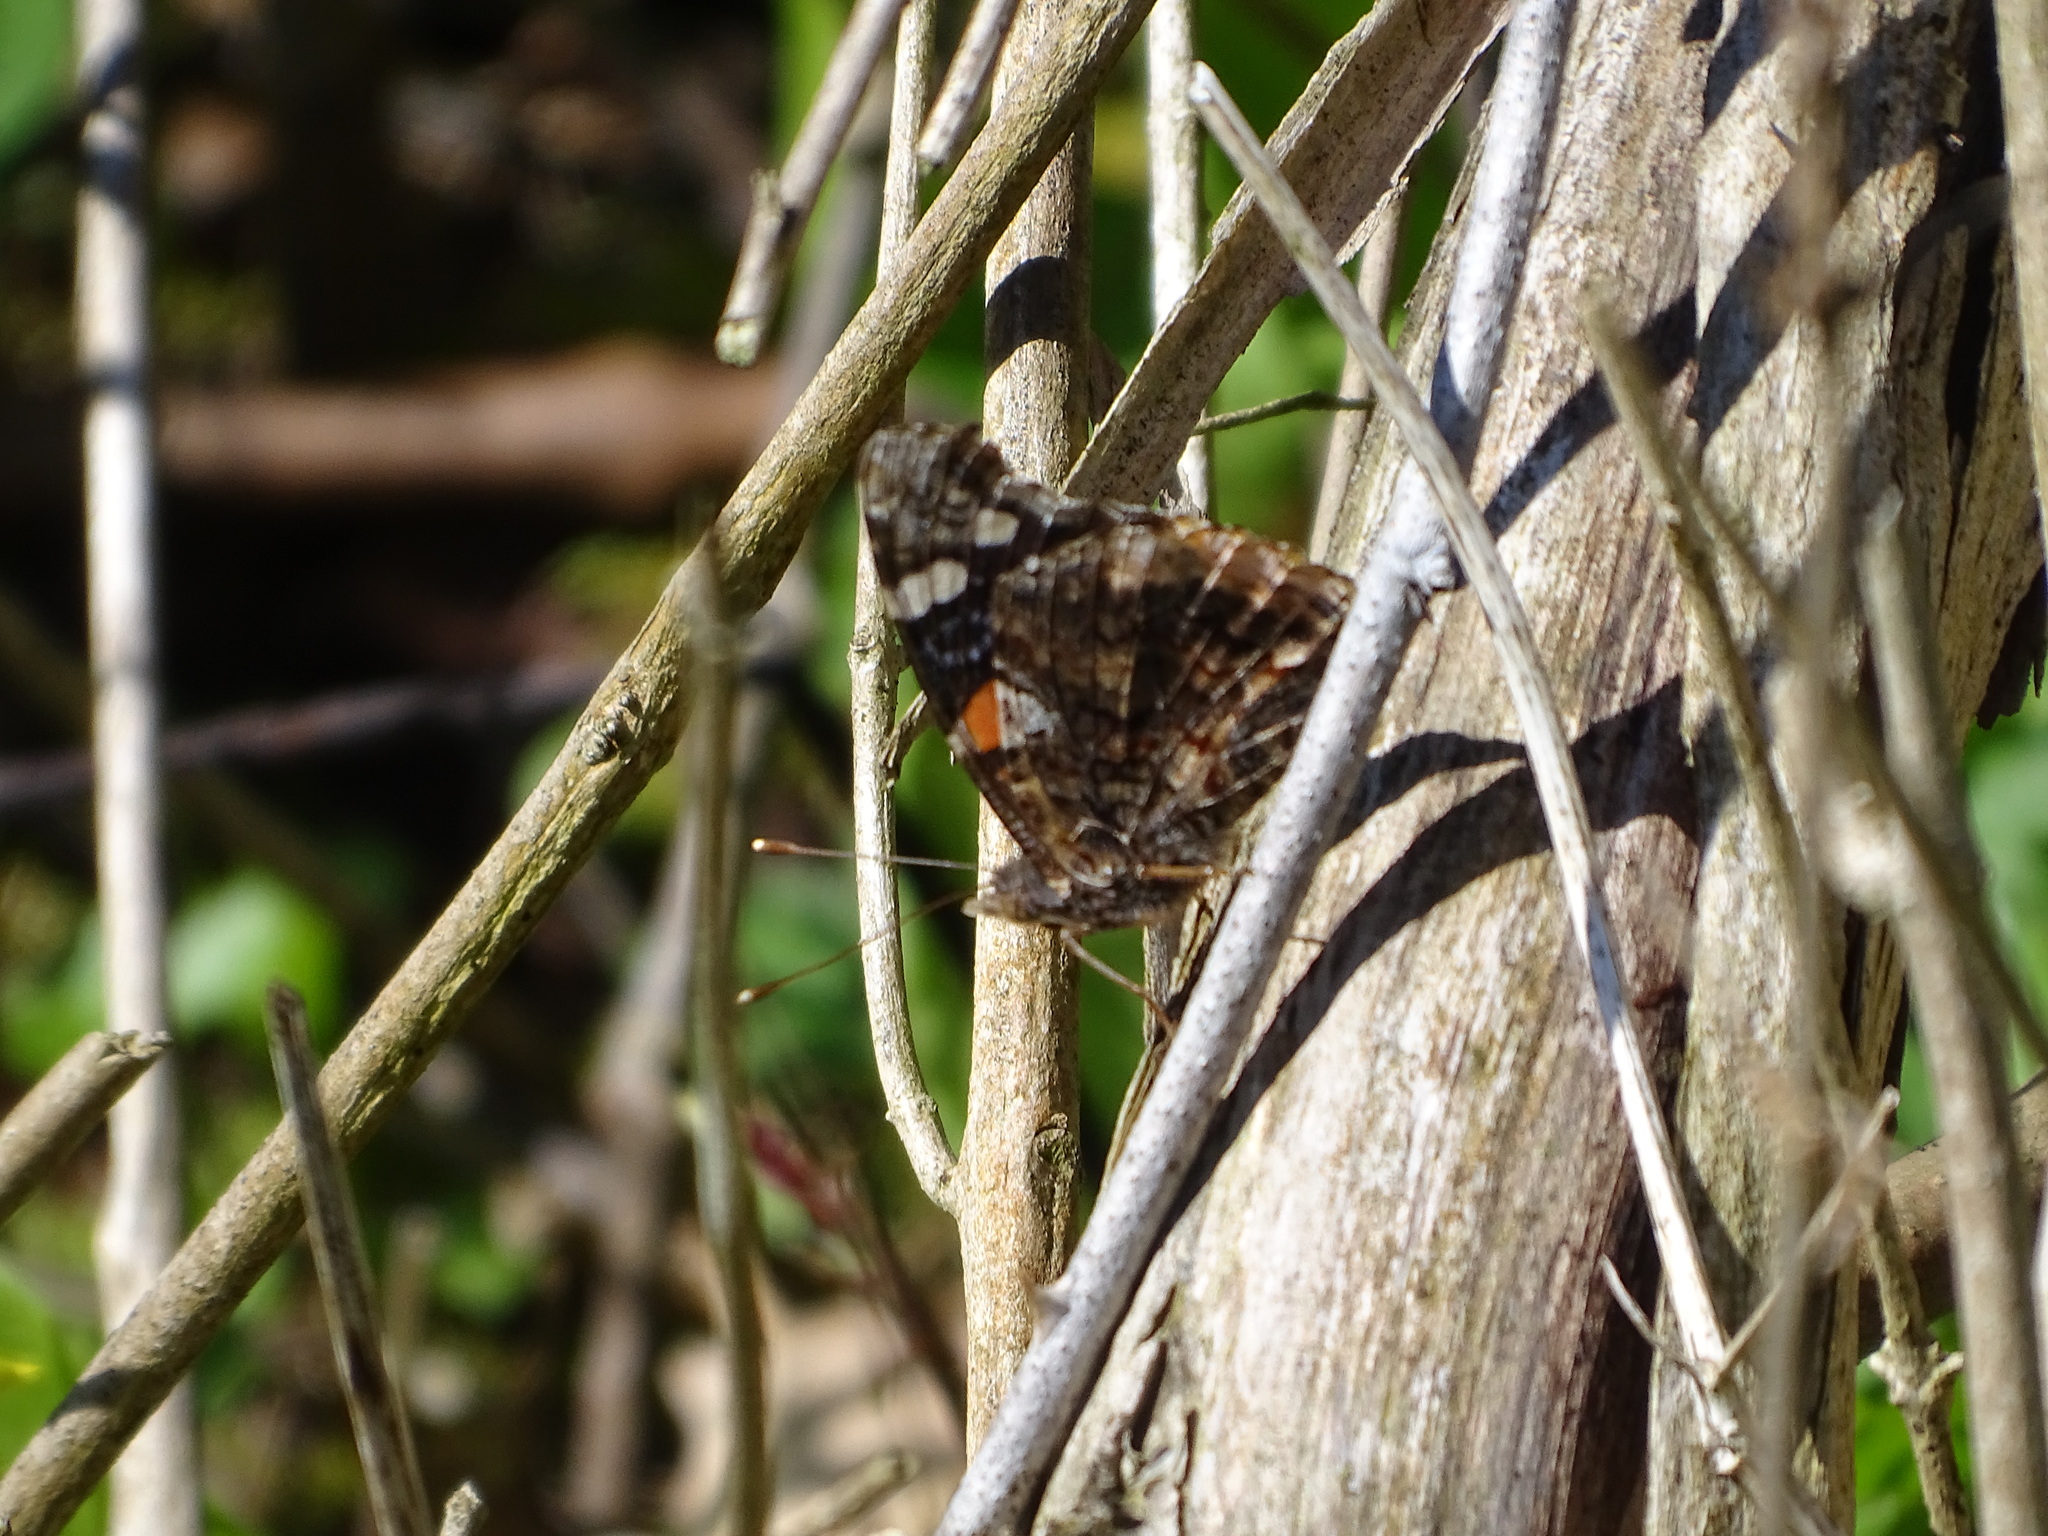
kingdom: Animalia
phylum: Arthropoda
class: Insecta
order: Lepidoptera
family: Nymphalidae
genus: Vanessa
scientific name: Vanessa atalanta
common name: Red admiral
